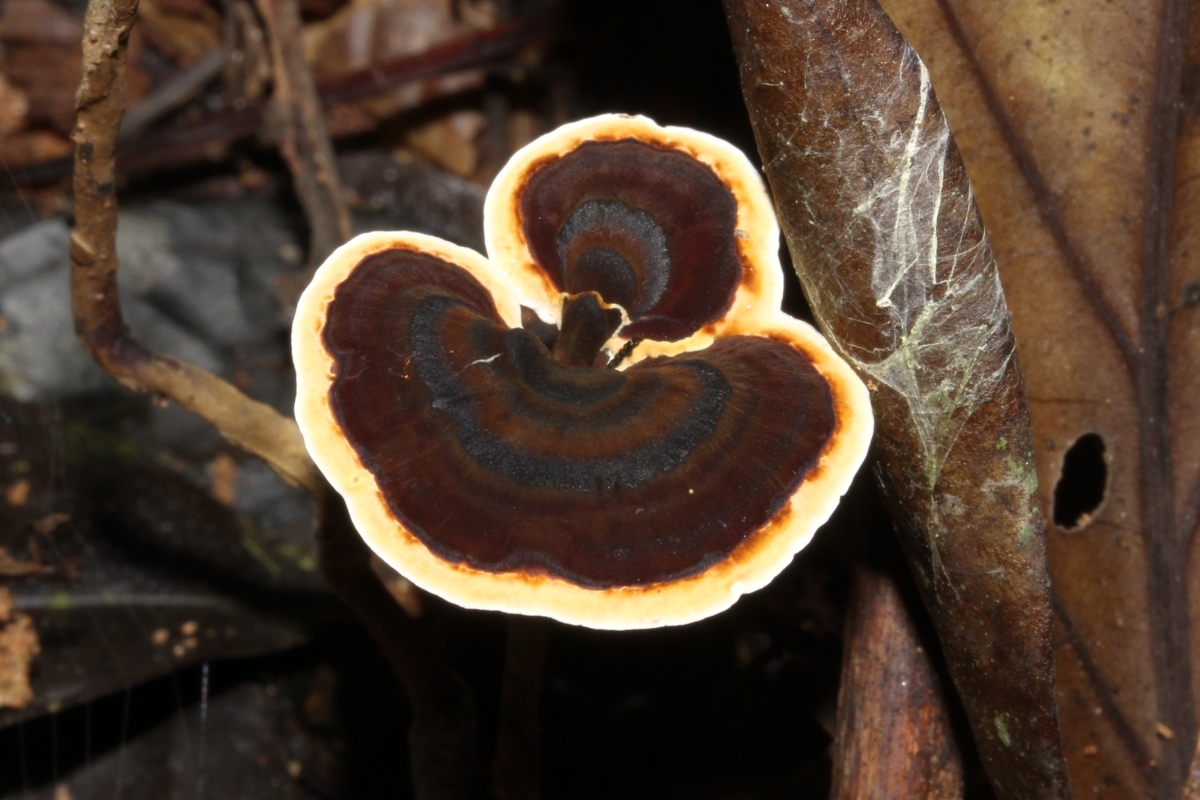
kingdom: Fungi
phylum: Basidiomycota
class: Agaricomycetes
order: Polyporales
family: Polyporaceae
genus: Amauroderma
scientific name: Amauroderma
